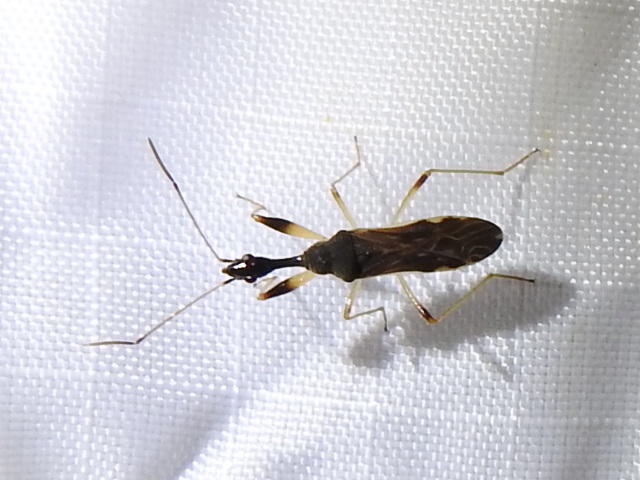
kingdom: Animalia
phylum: Arthropoda
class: Insecta
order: Hemiptera
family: Rhyparochromidae
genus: Myodocha
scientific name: Myodocha serripes
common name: Long-necked seed bug
